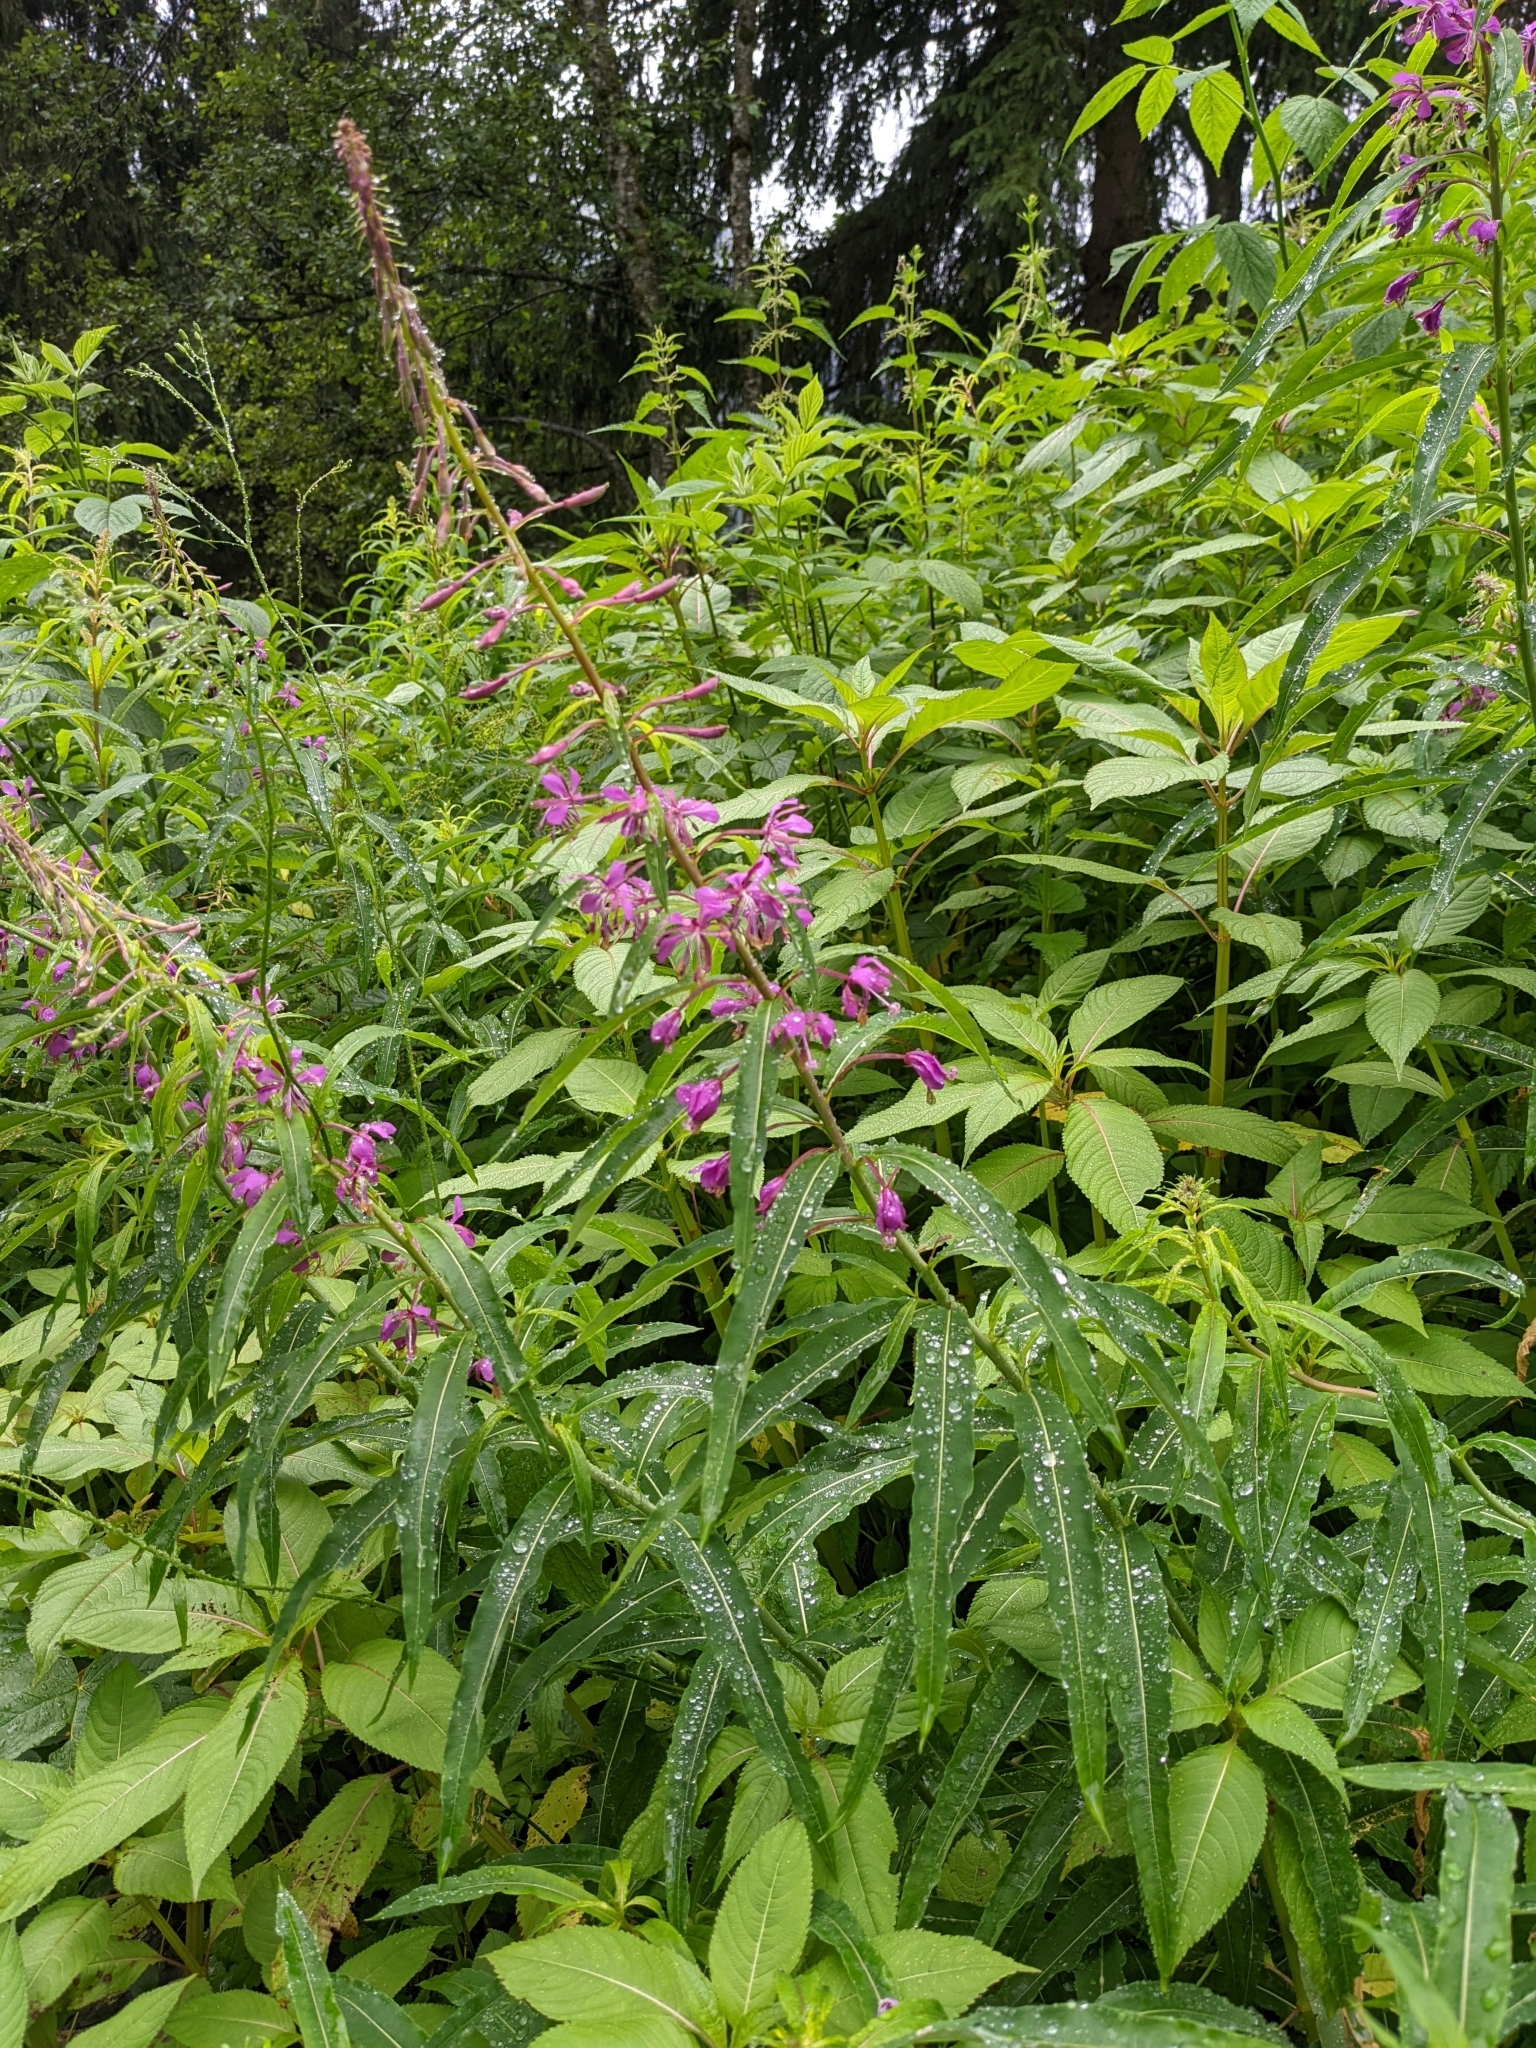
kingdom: Plantae
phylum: Tracheophyta
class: Magnoliopsida
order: Myrtales
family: Onagraceae
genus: Chamaenerion
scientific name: Chamaenerion angustifolium
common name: Fireweed
